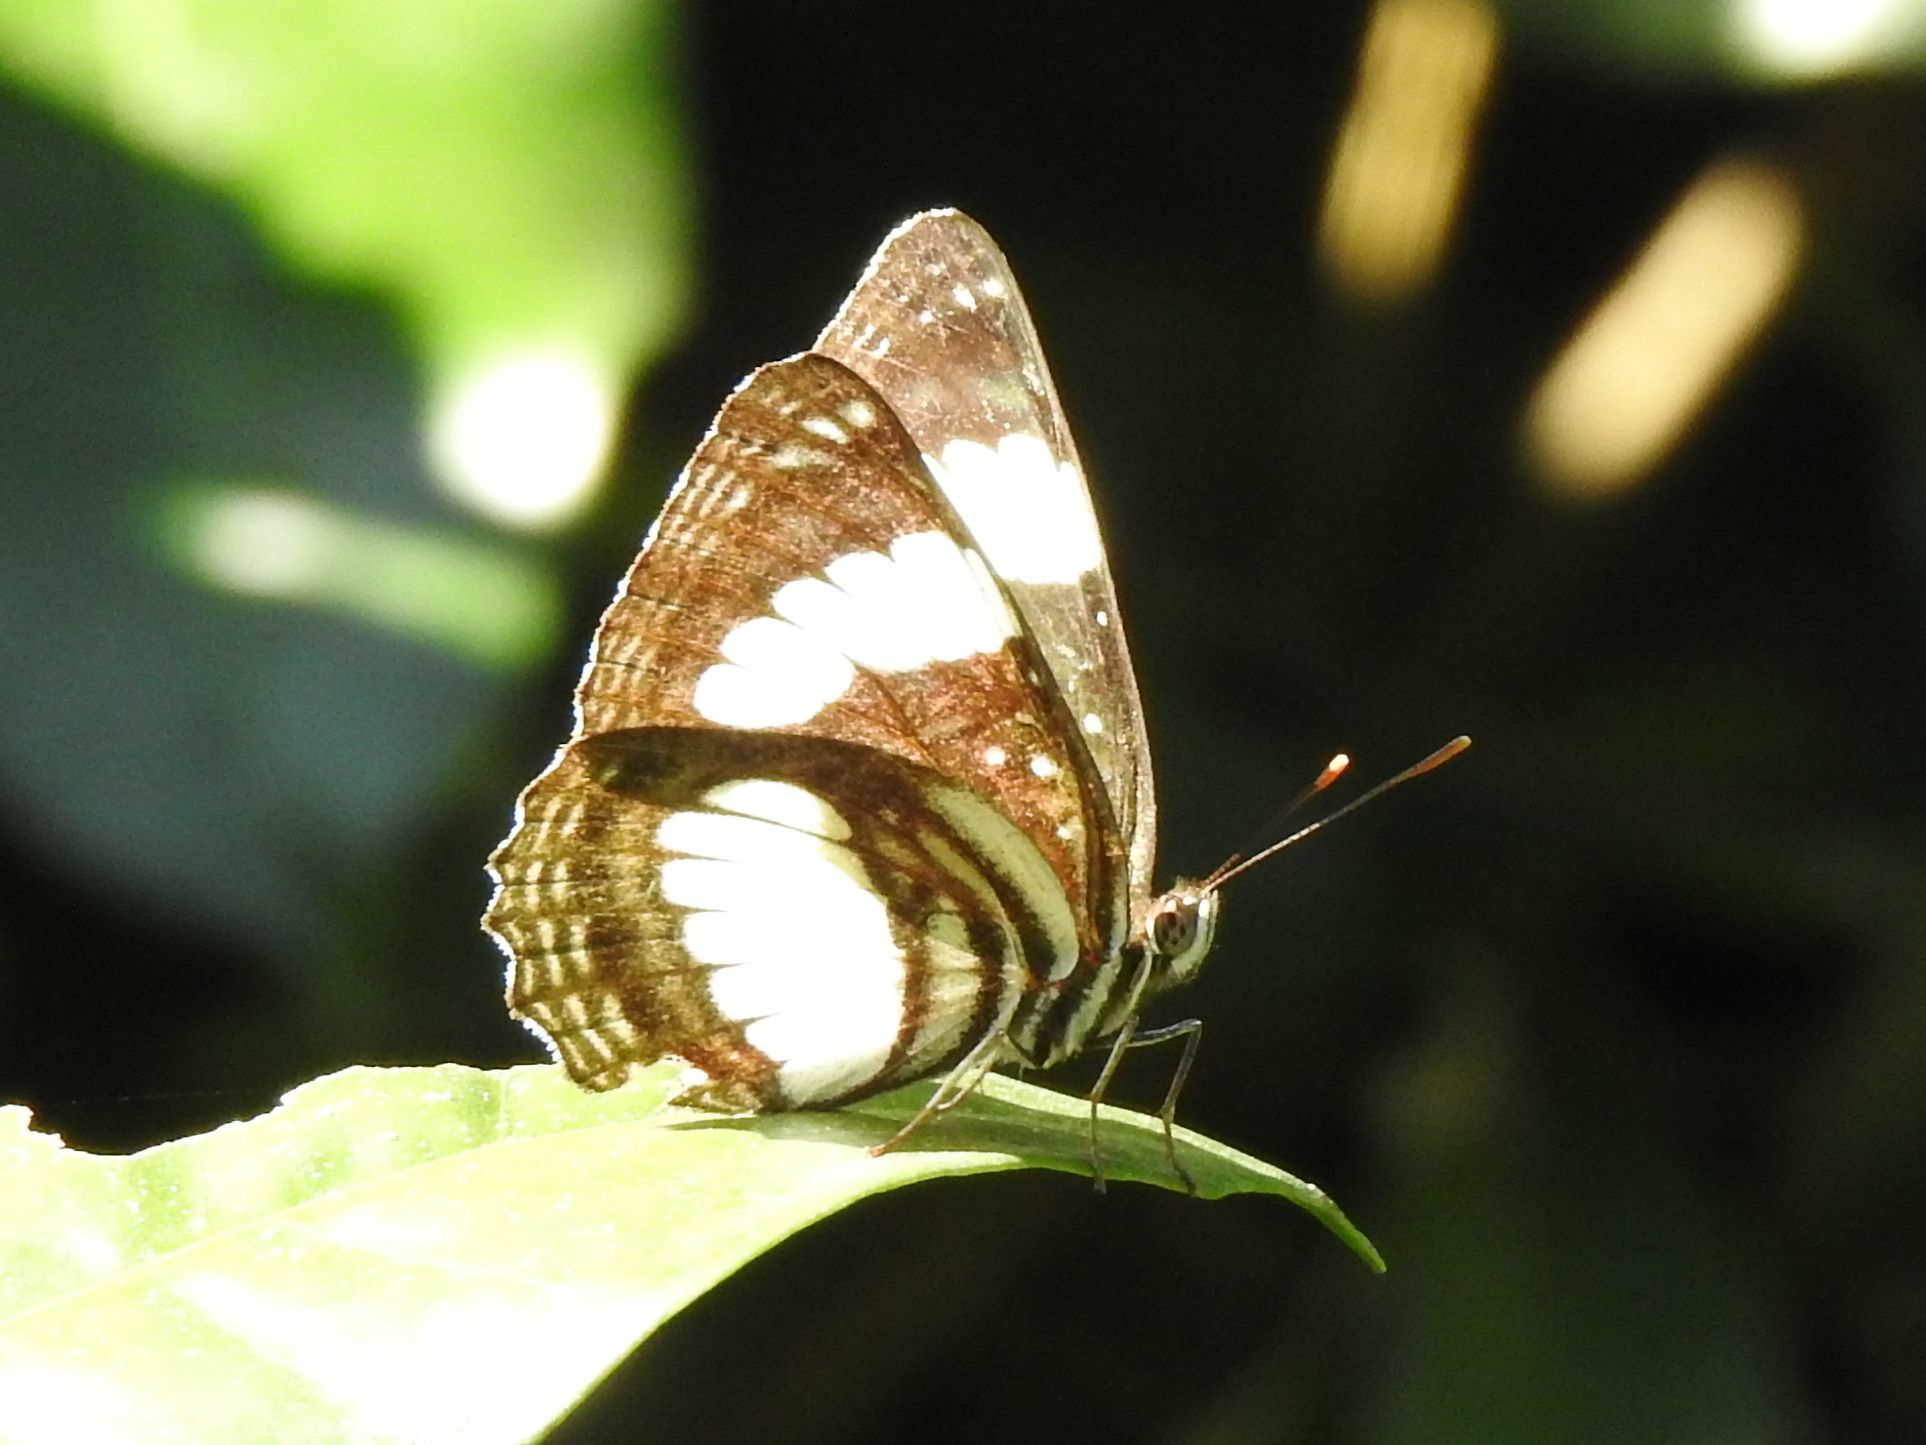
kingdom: Animalia
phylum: Arthropoda
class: Insecta
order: Lepidoptera
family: Nymphalidae
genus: Neptis
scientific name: Neptis laeta
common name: Common barred sailor
